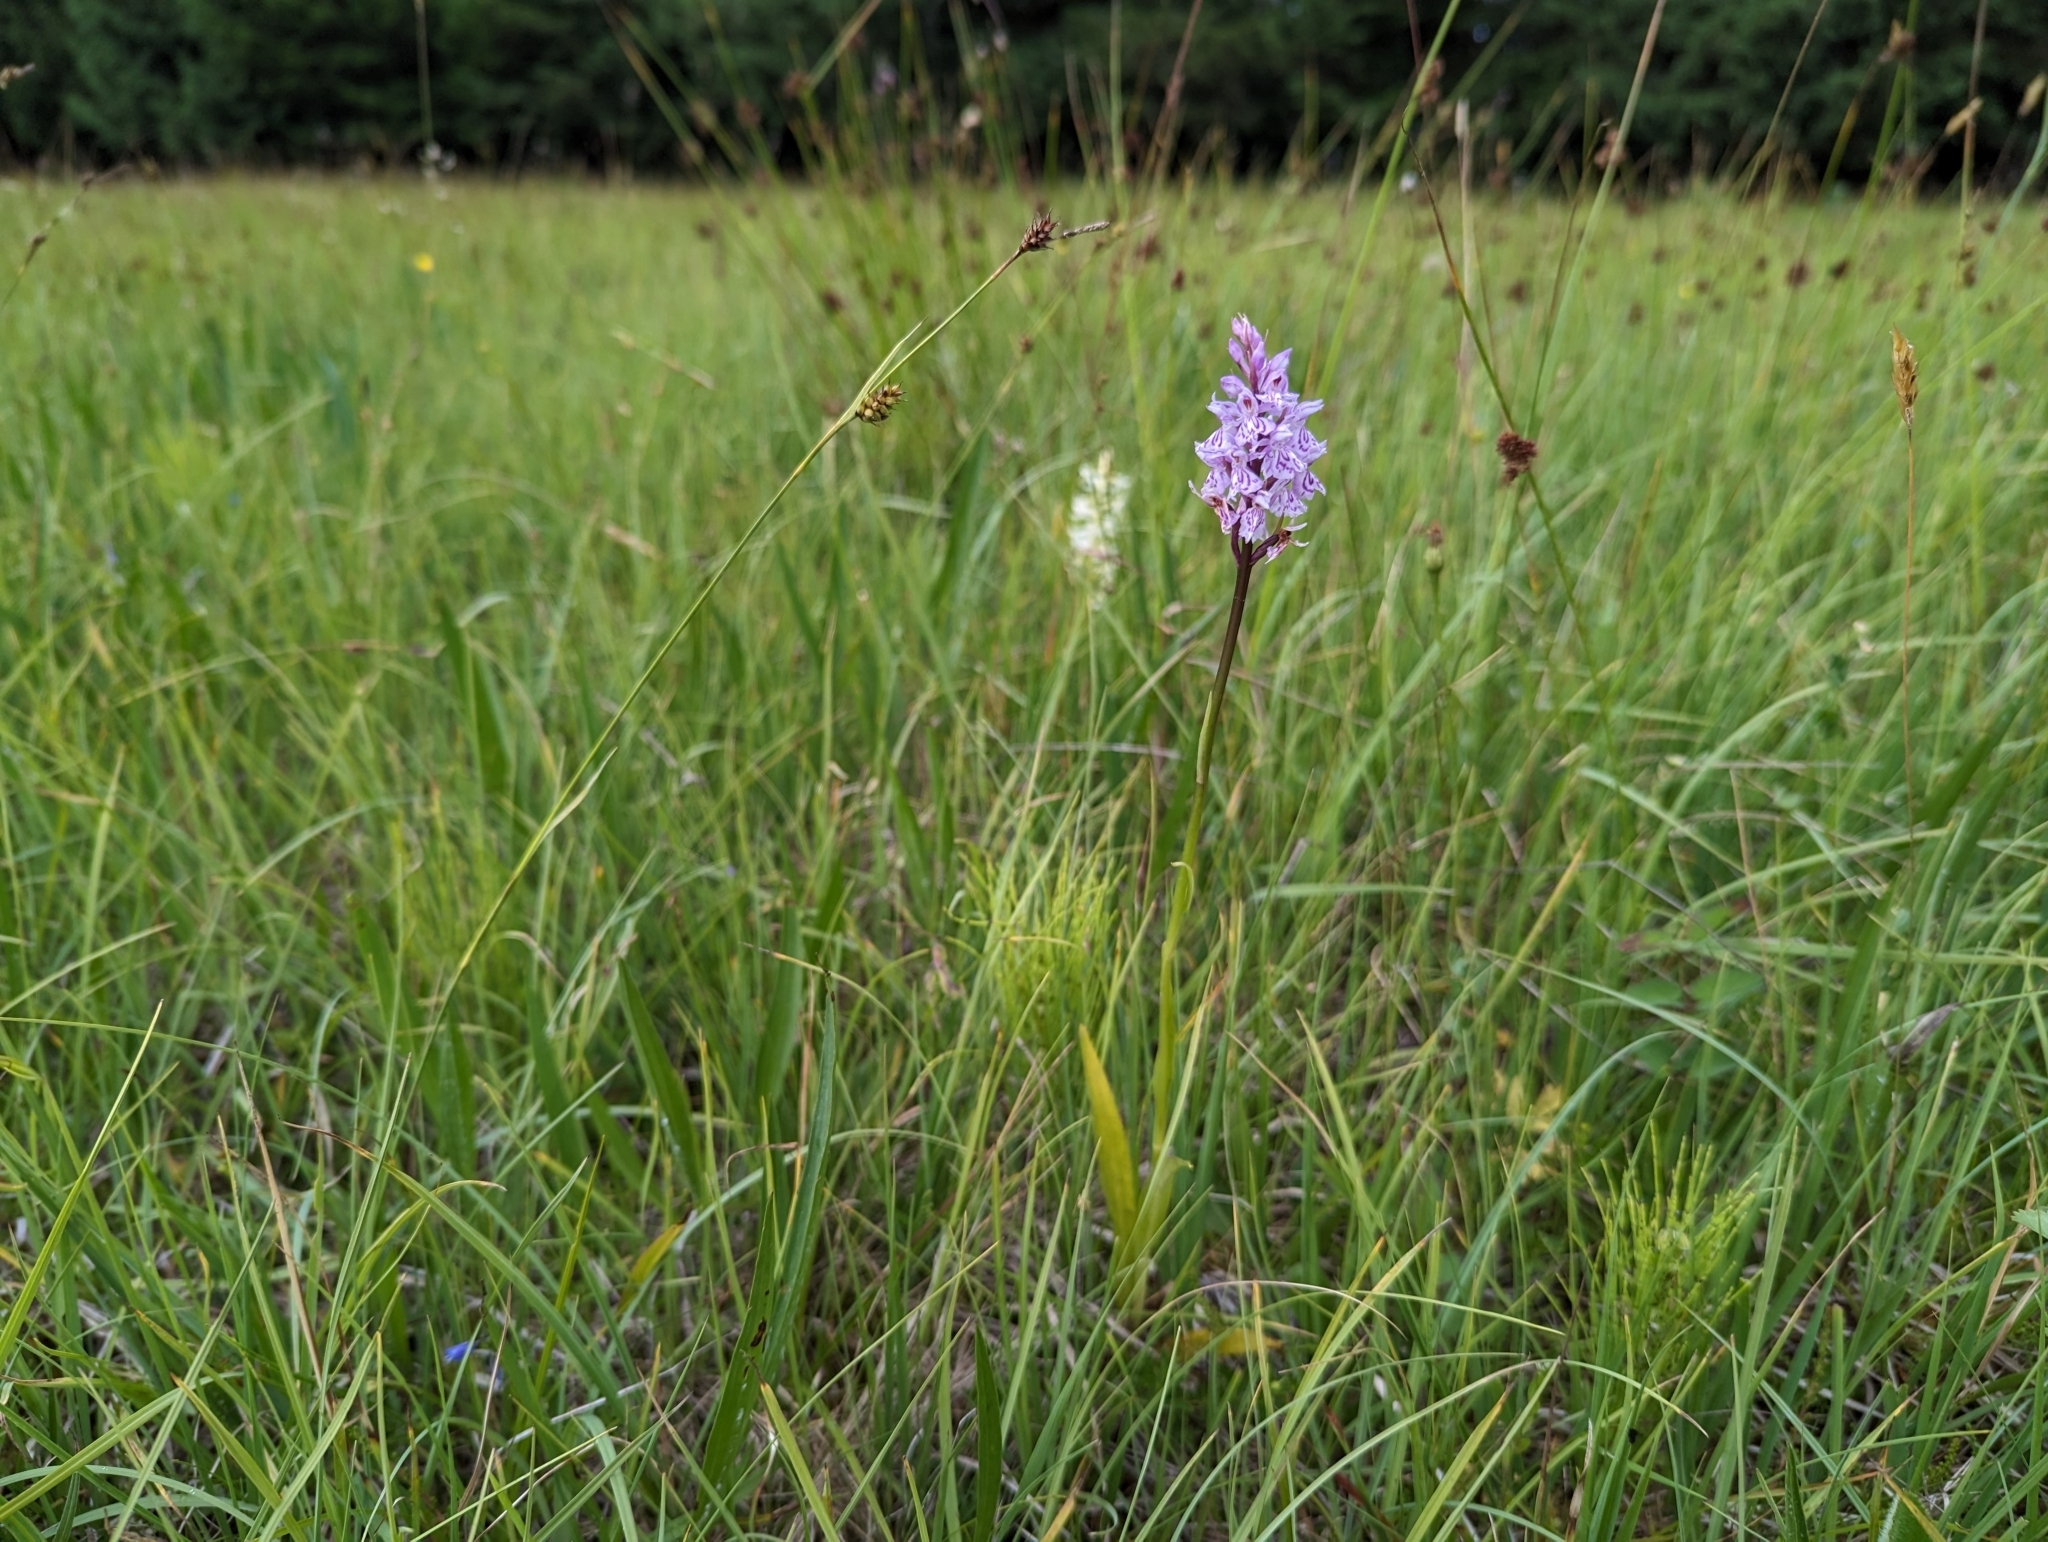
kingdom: Plantae
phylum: Tracheophyta
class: Liliopsida
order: Asparagales
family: Orchidaceae
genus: Dactylorhiza
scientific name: Dactylorhiza maculata
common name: Heath spotted-orchid
